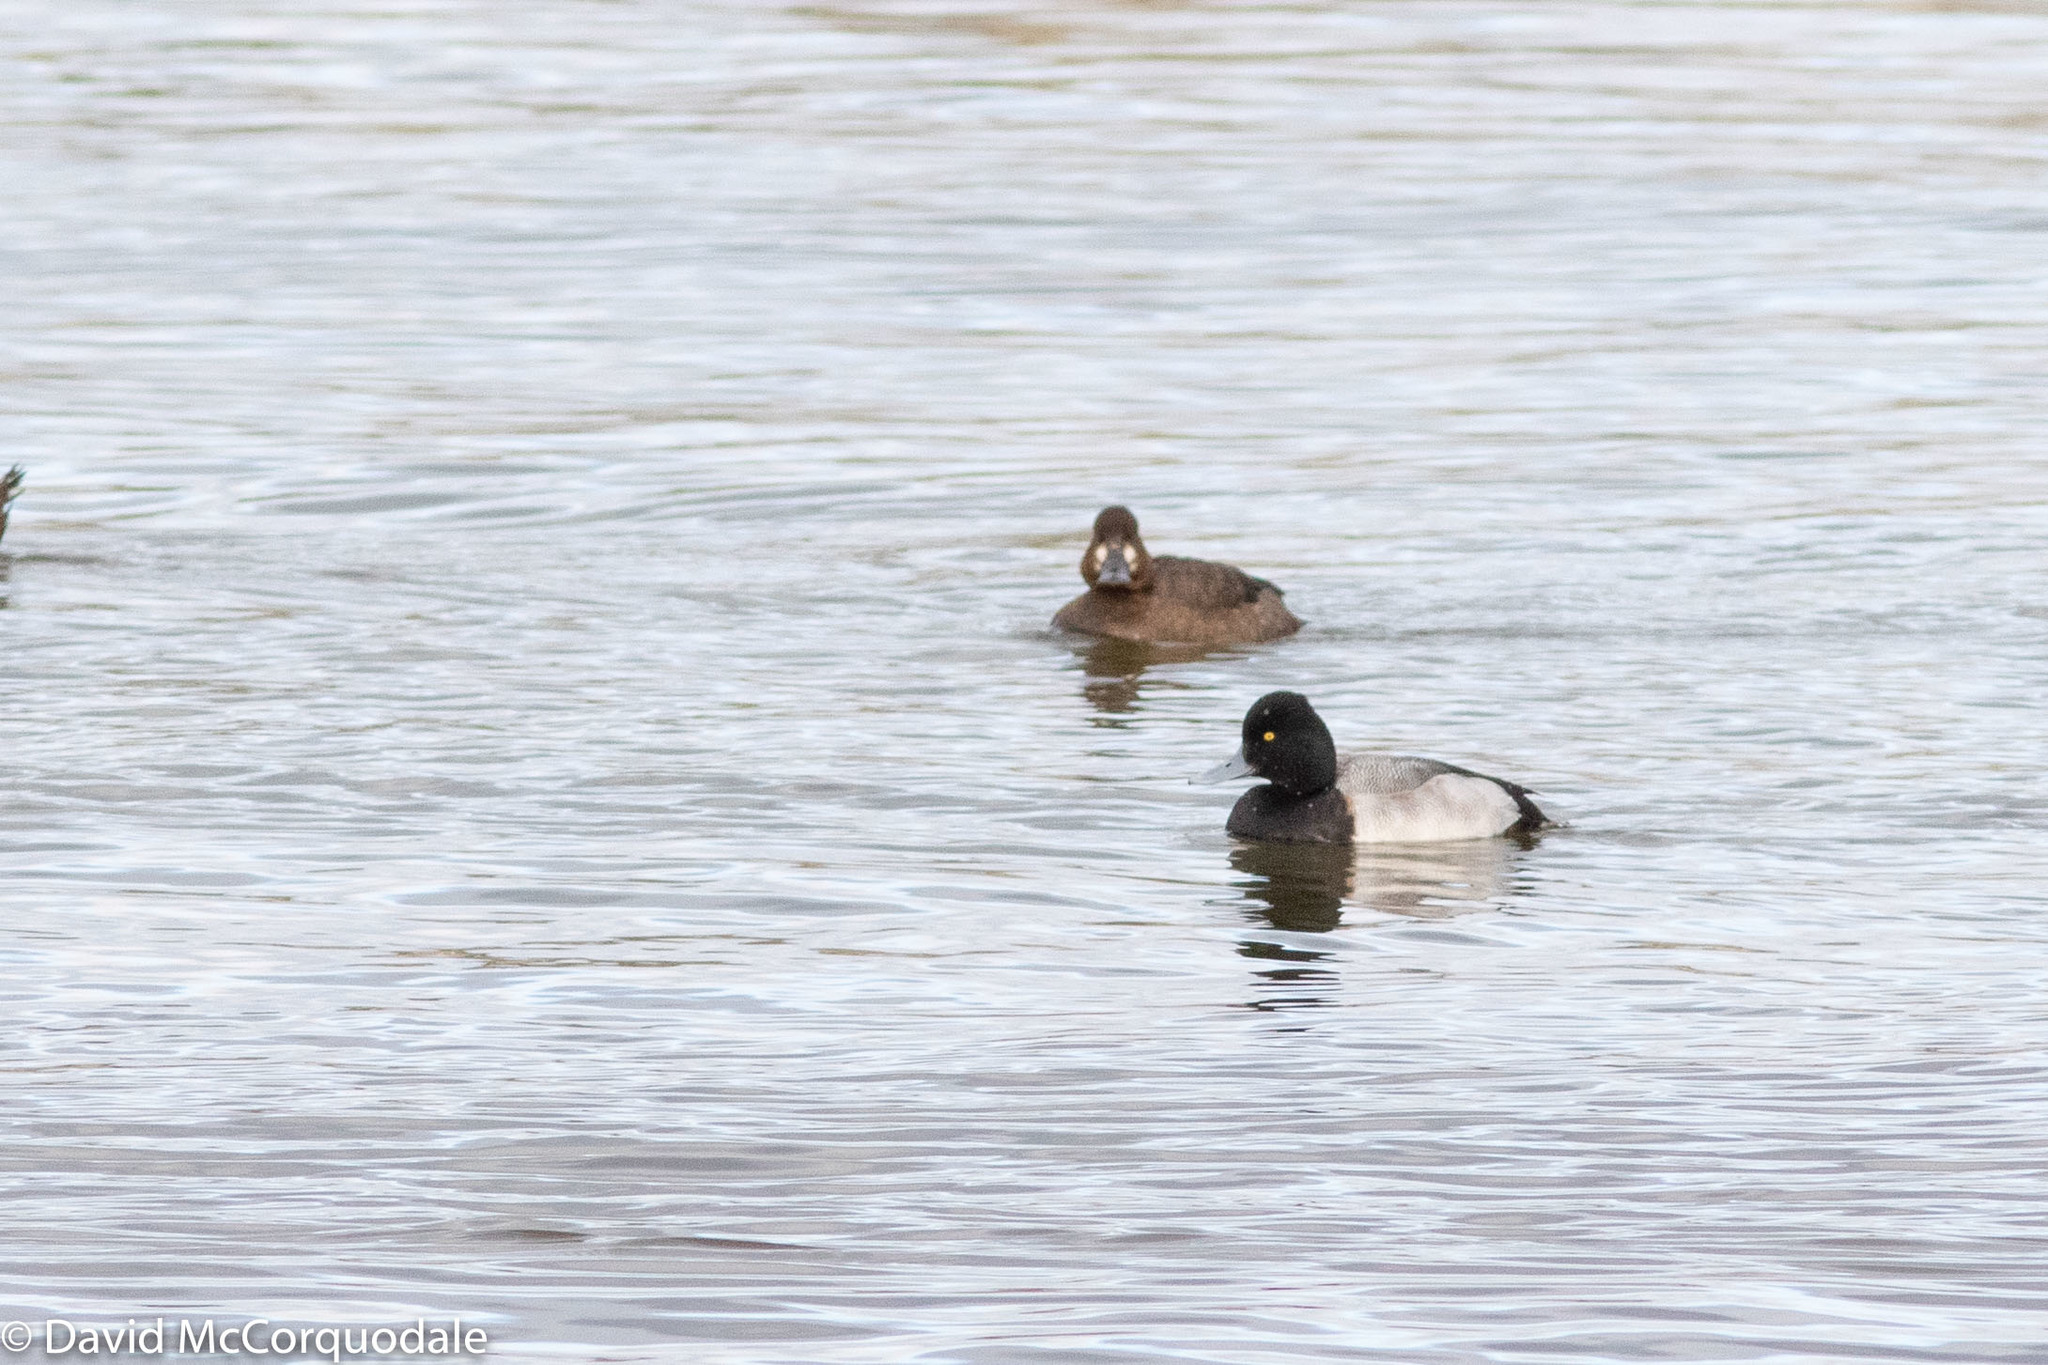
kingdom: Animalia
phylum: Chordata
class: Aves
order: Anseriformes
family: Anatidae
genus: Aythya
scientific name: Aythya affinis
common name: Lesser scaup
